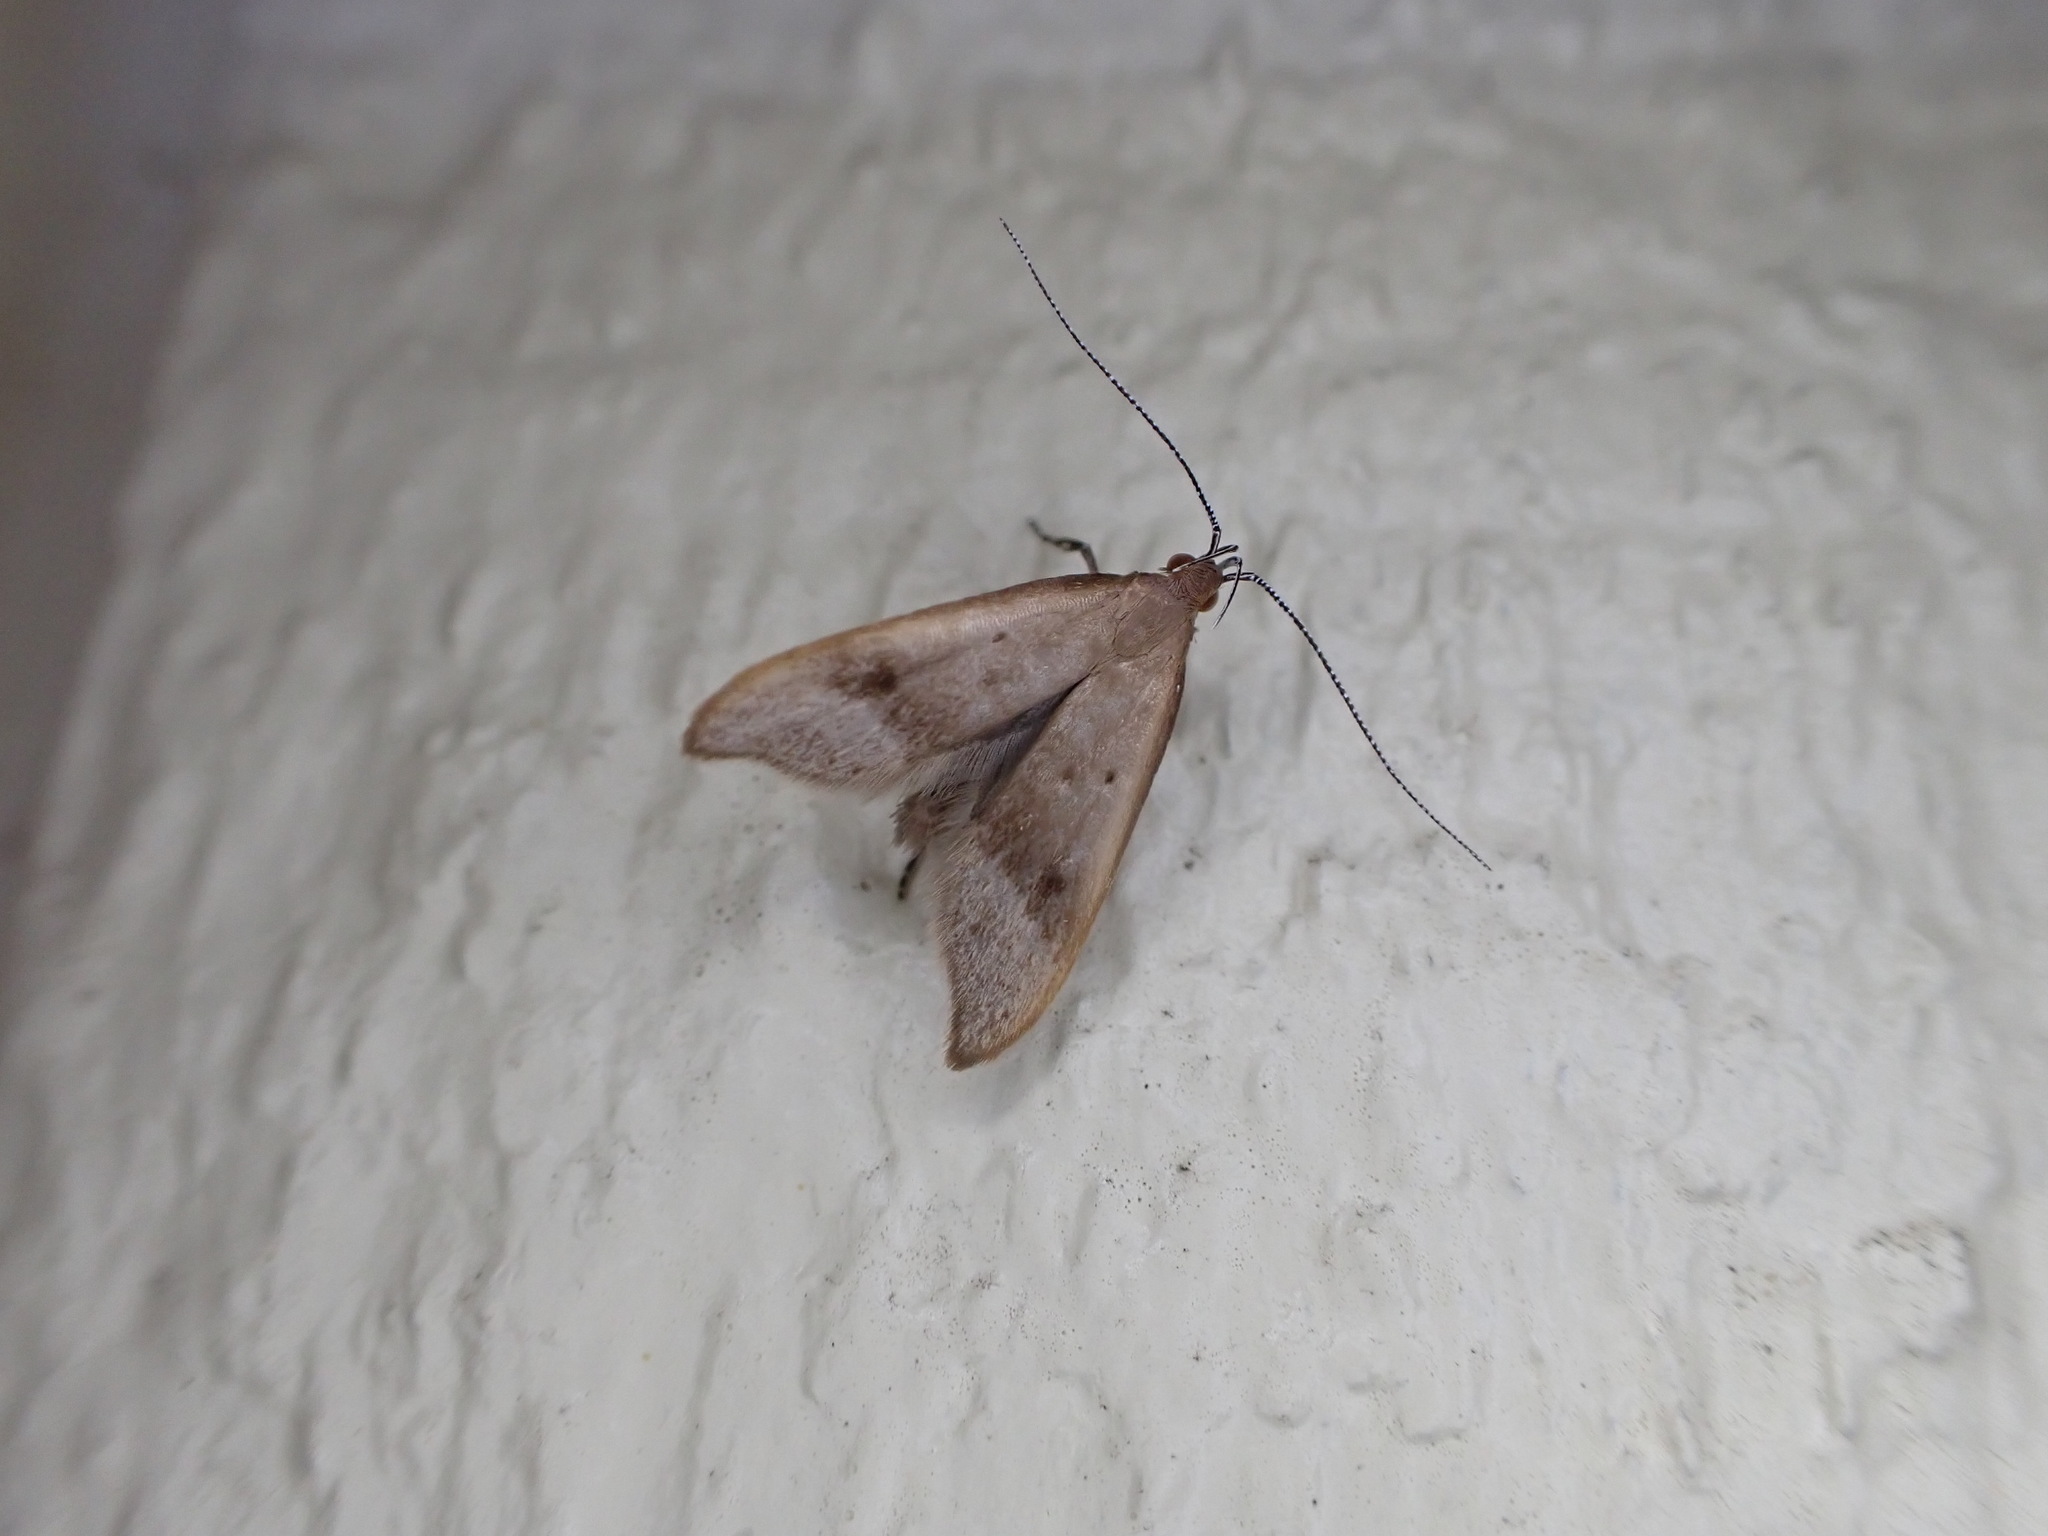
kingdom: Animalia
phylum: Arthropoda
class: Insecta
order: Lepidoptera
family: Oecophoridae
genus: Gymnobathra
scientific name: Gymnobathra hyetodes
